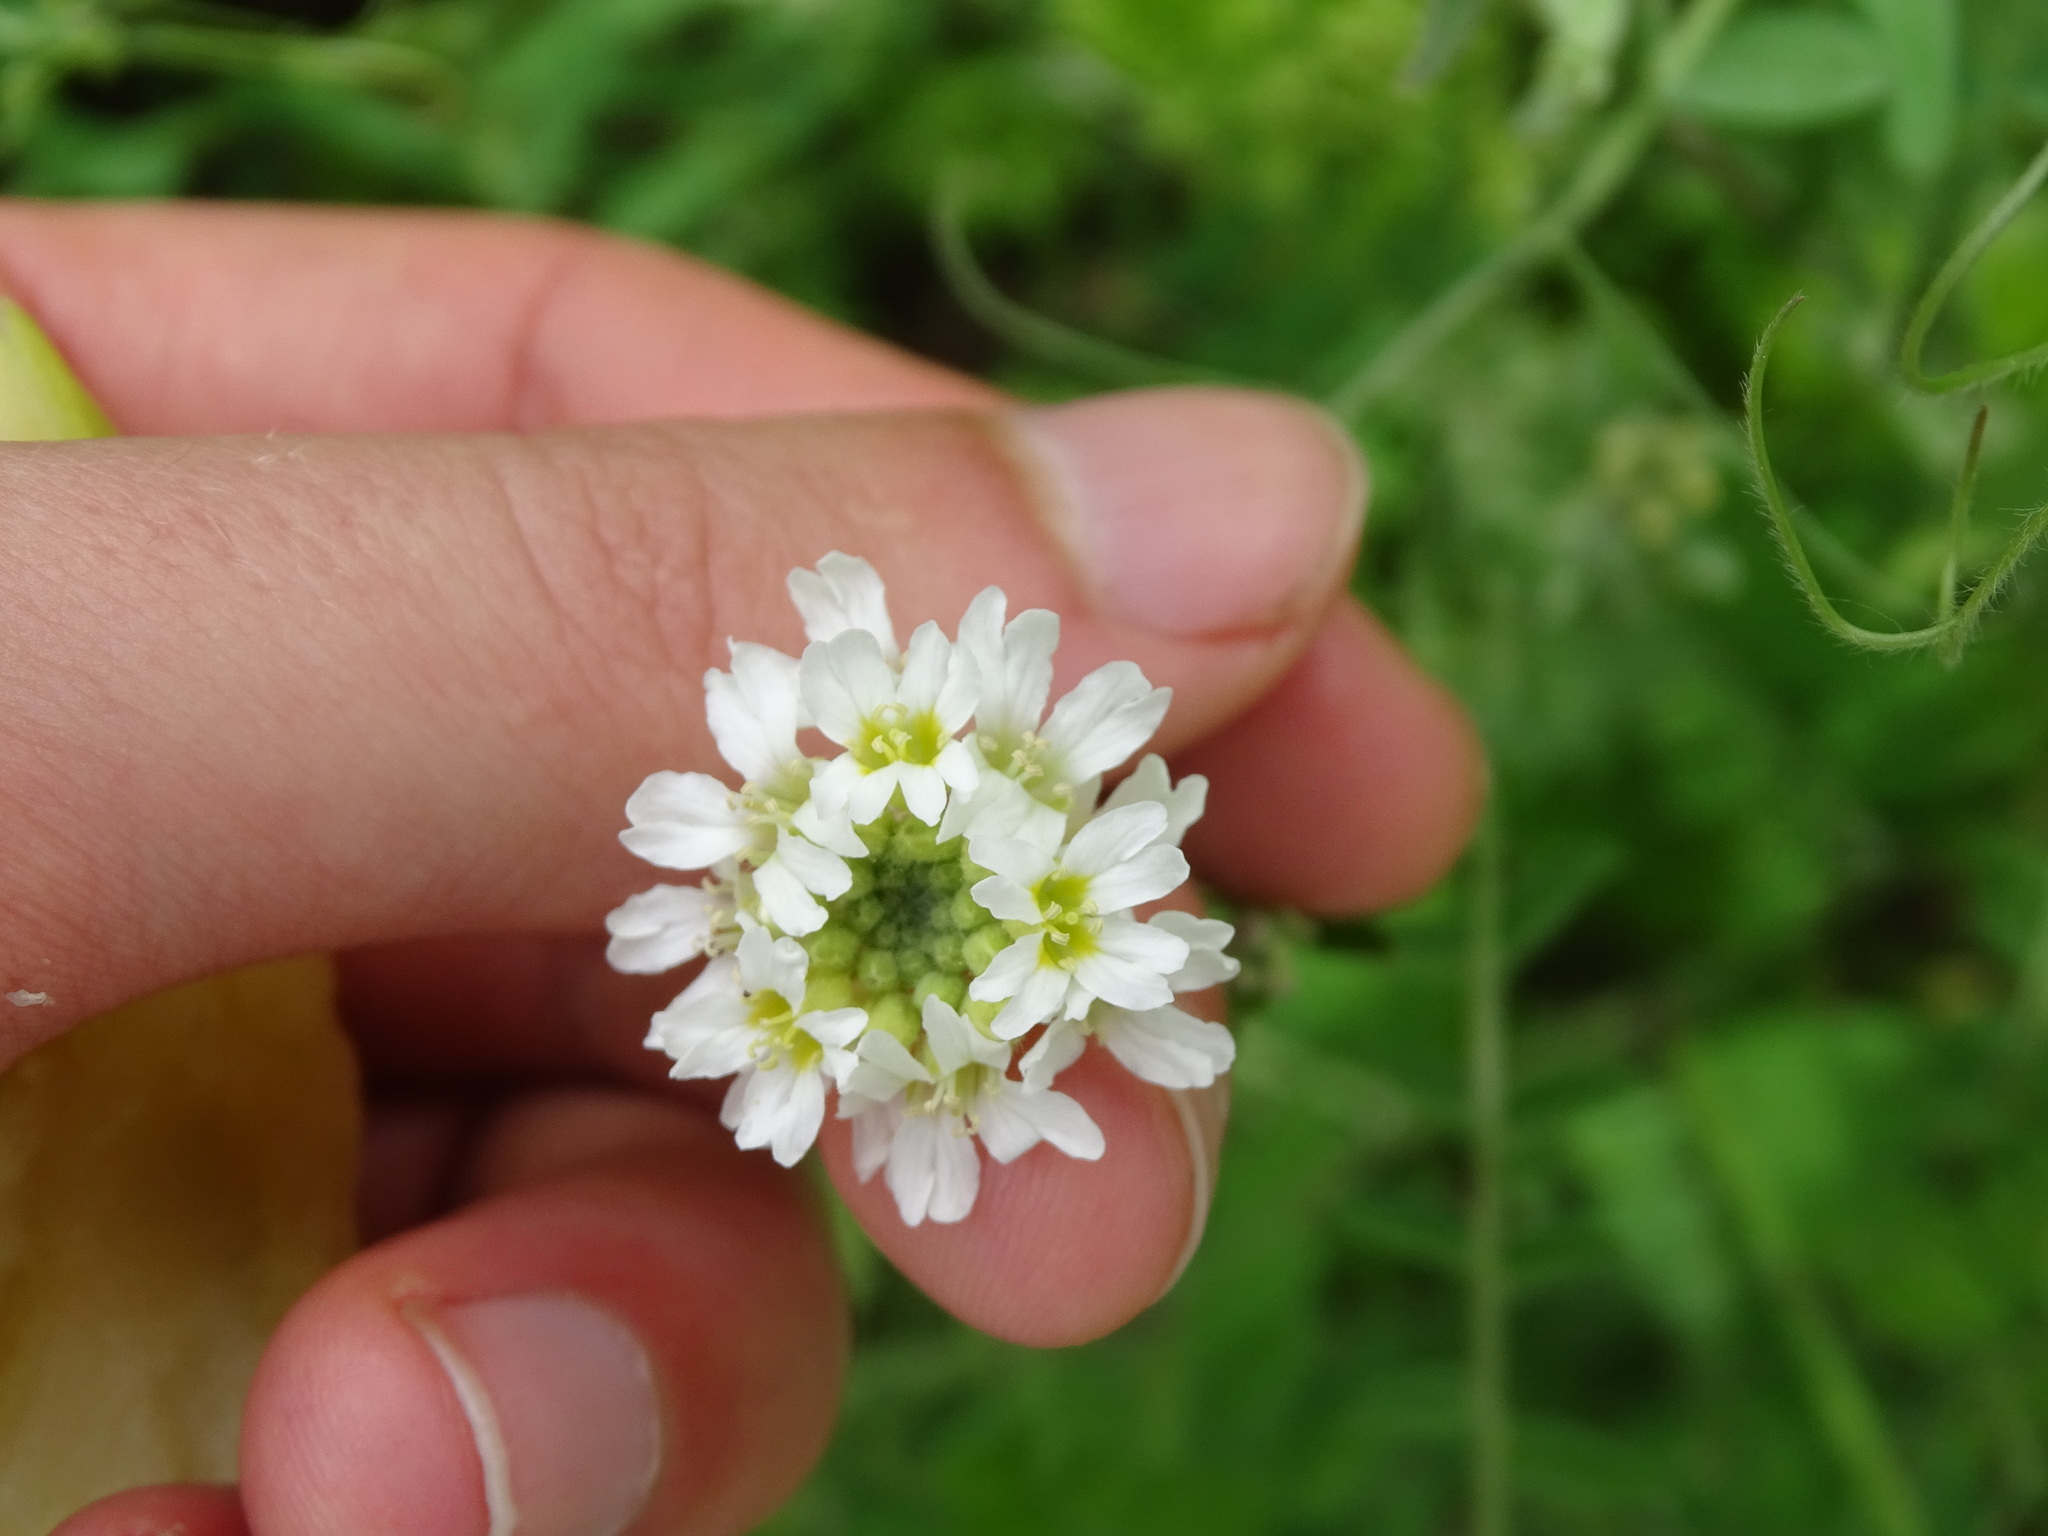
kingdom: Plantae
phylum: Tracheophyta
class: Magnoliopsida
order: Brassicales
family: Brassicaceae
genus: Berteroa
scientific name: Berteroa incana
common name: Hoary alison
